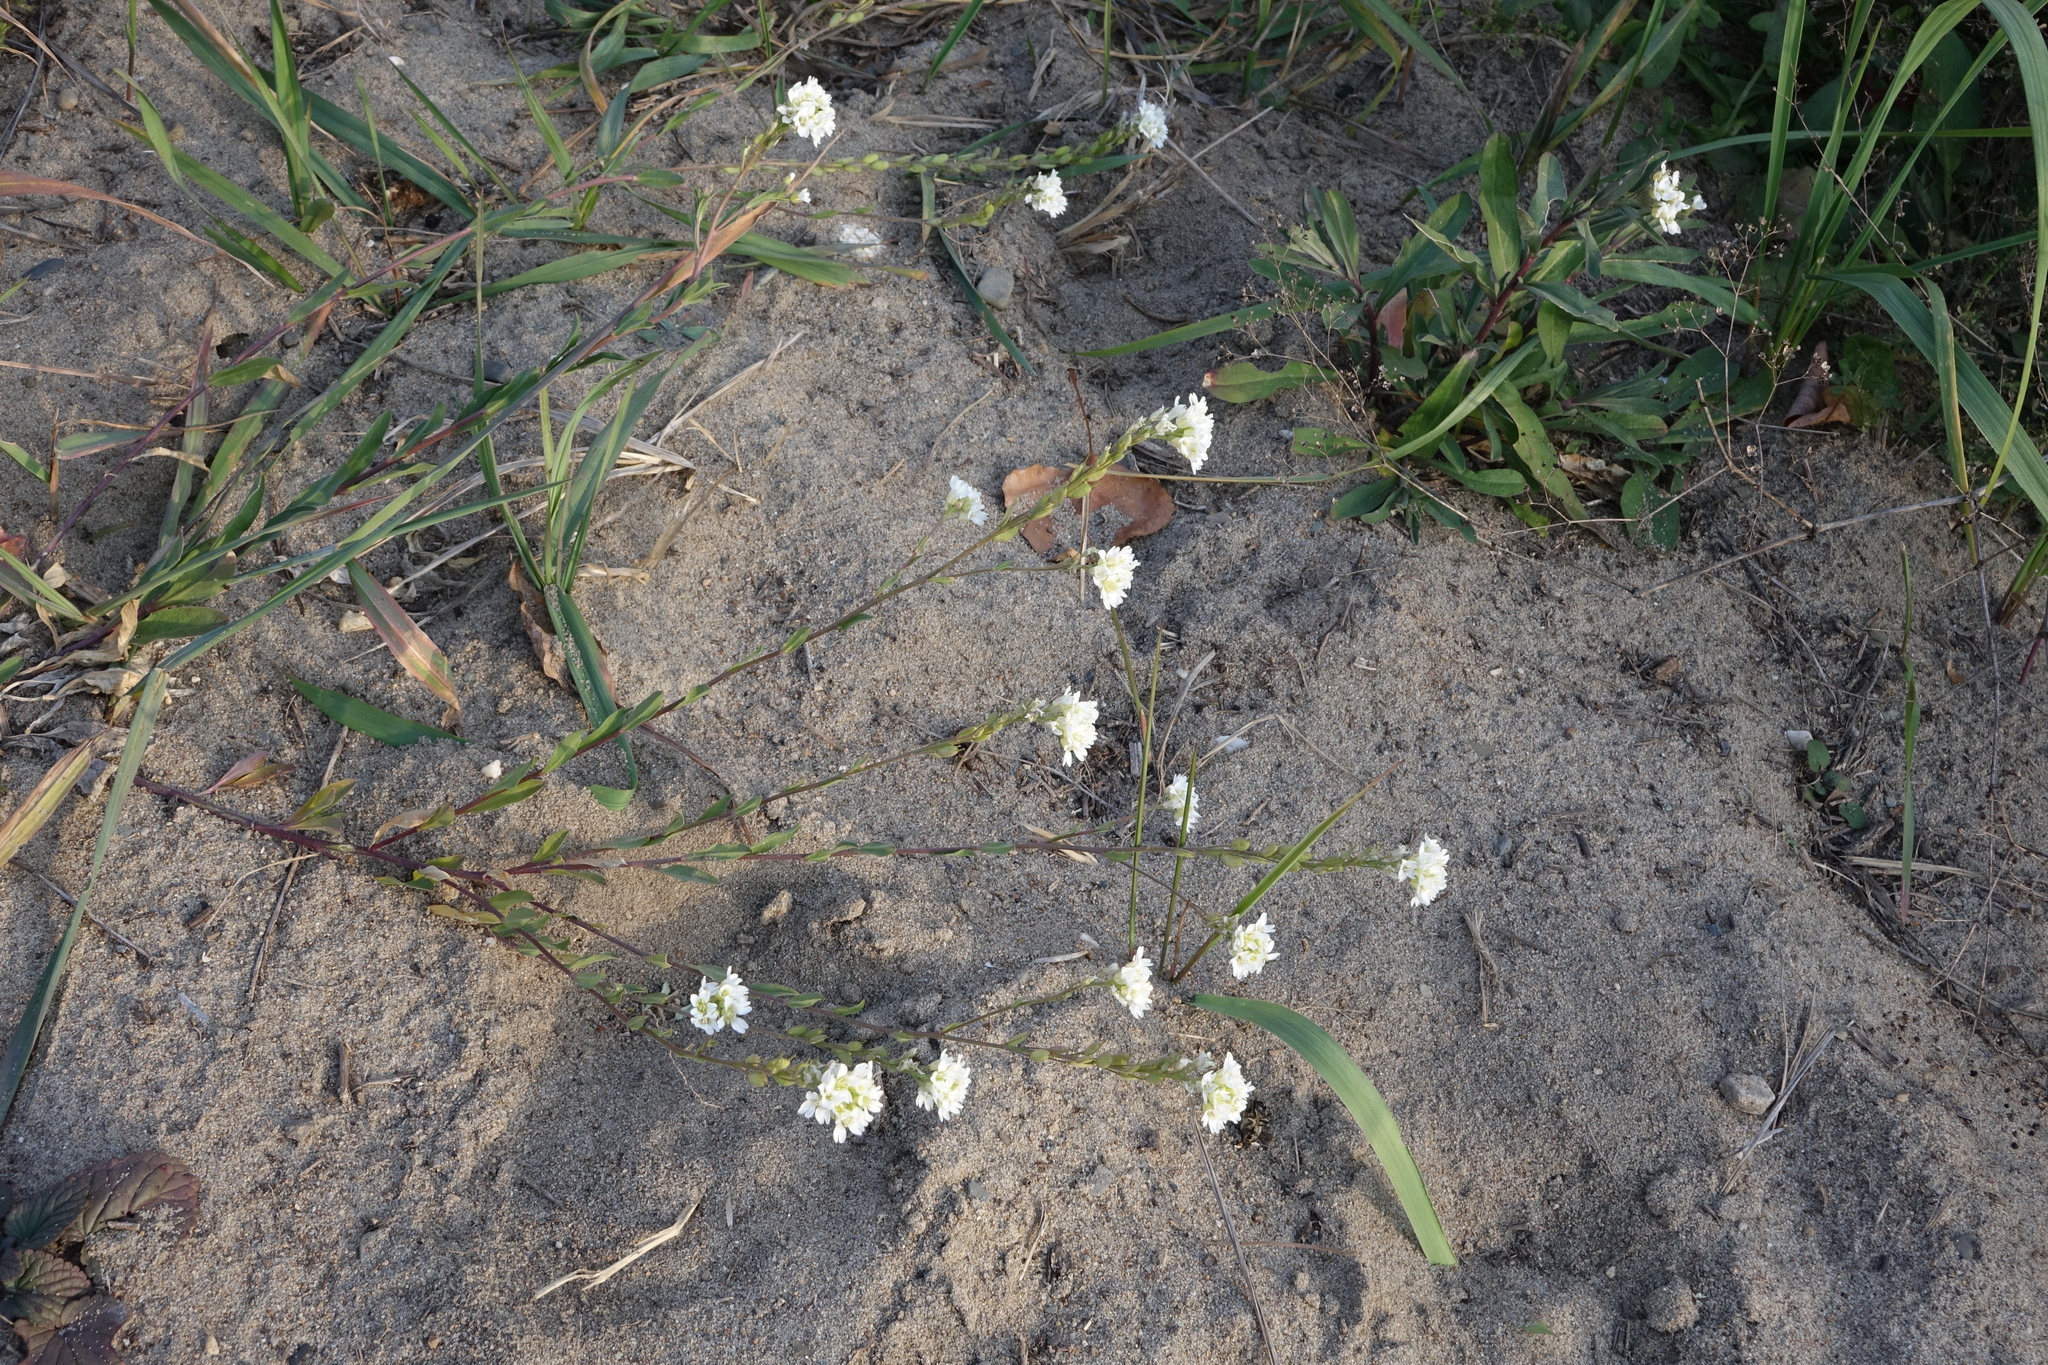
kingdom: Plantae
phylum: Tracheophyta
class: Magnoliopsida
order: Brassicales
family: Brassicaceae
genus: Berteroa
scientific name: Berteroa incana
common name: Hoary alison
